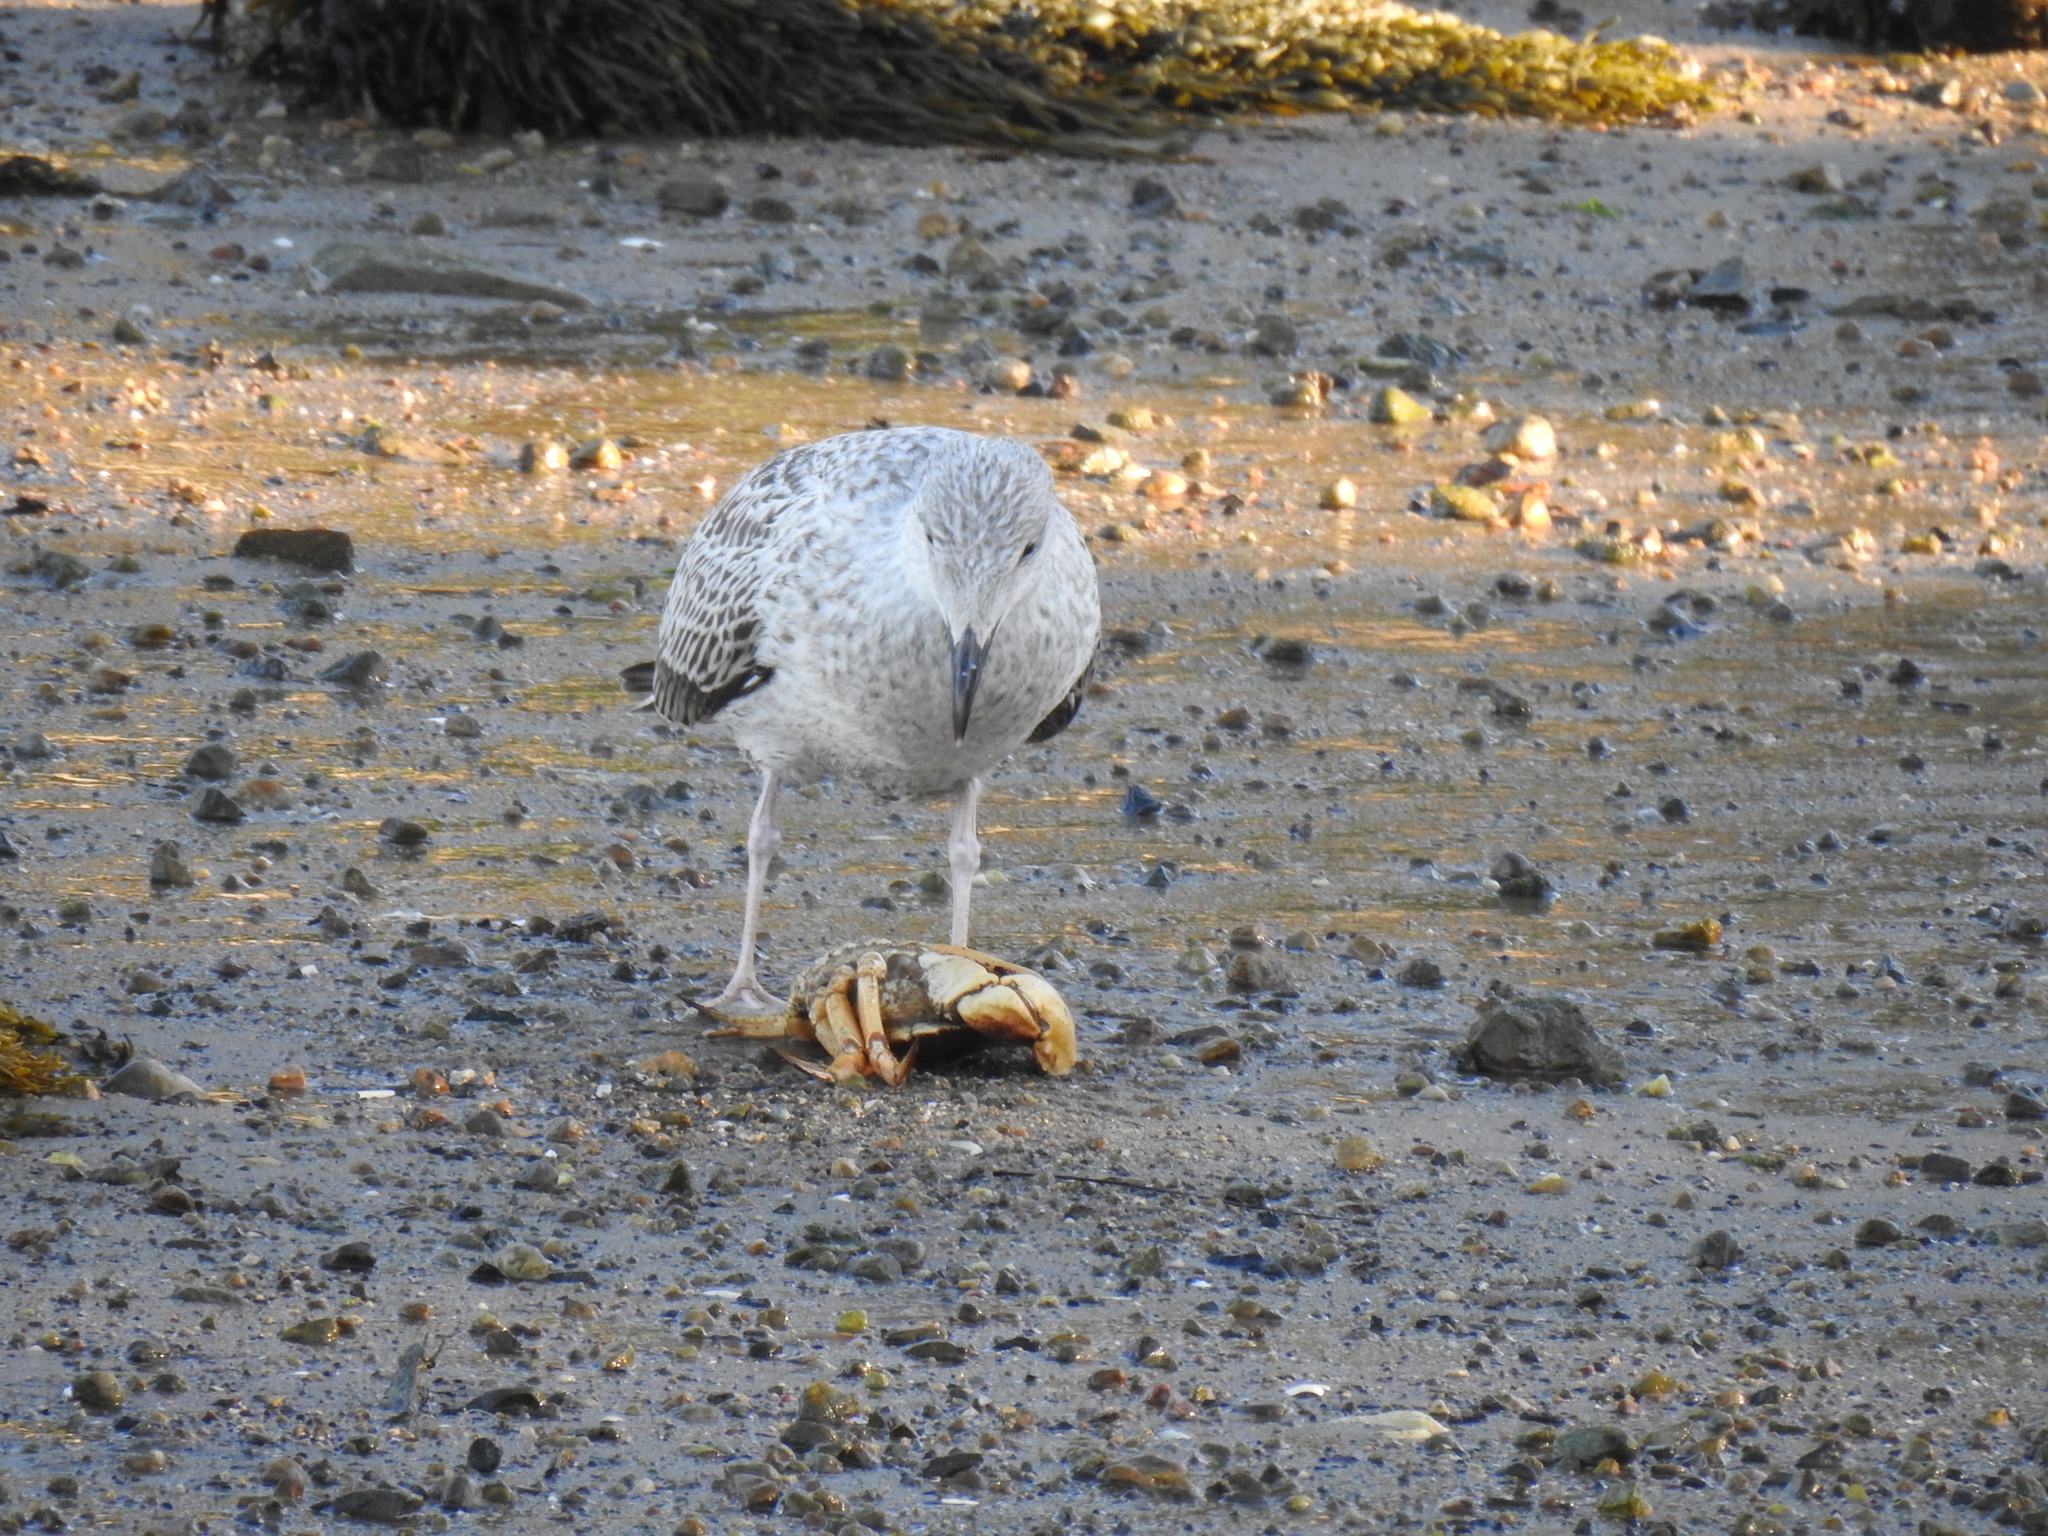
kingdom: Animalia
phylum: Chordata
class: Aves
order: Charadriiformes
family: Laridae
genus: Larus
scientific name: Larus marinus
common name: Great black-backed gull
